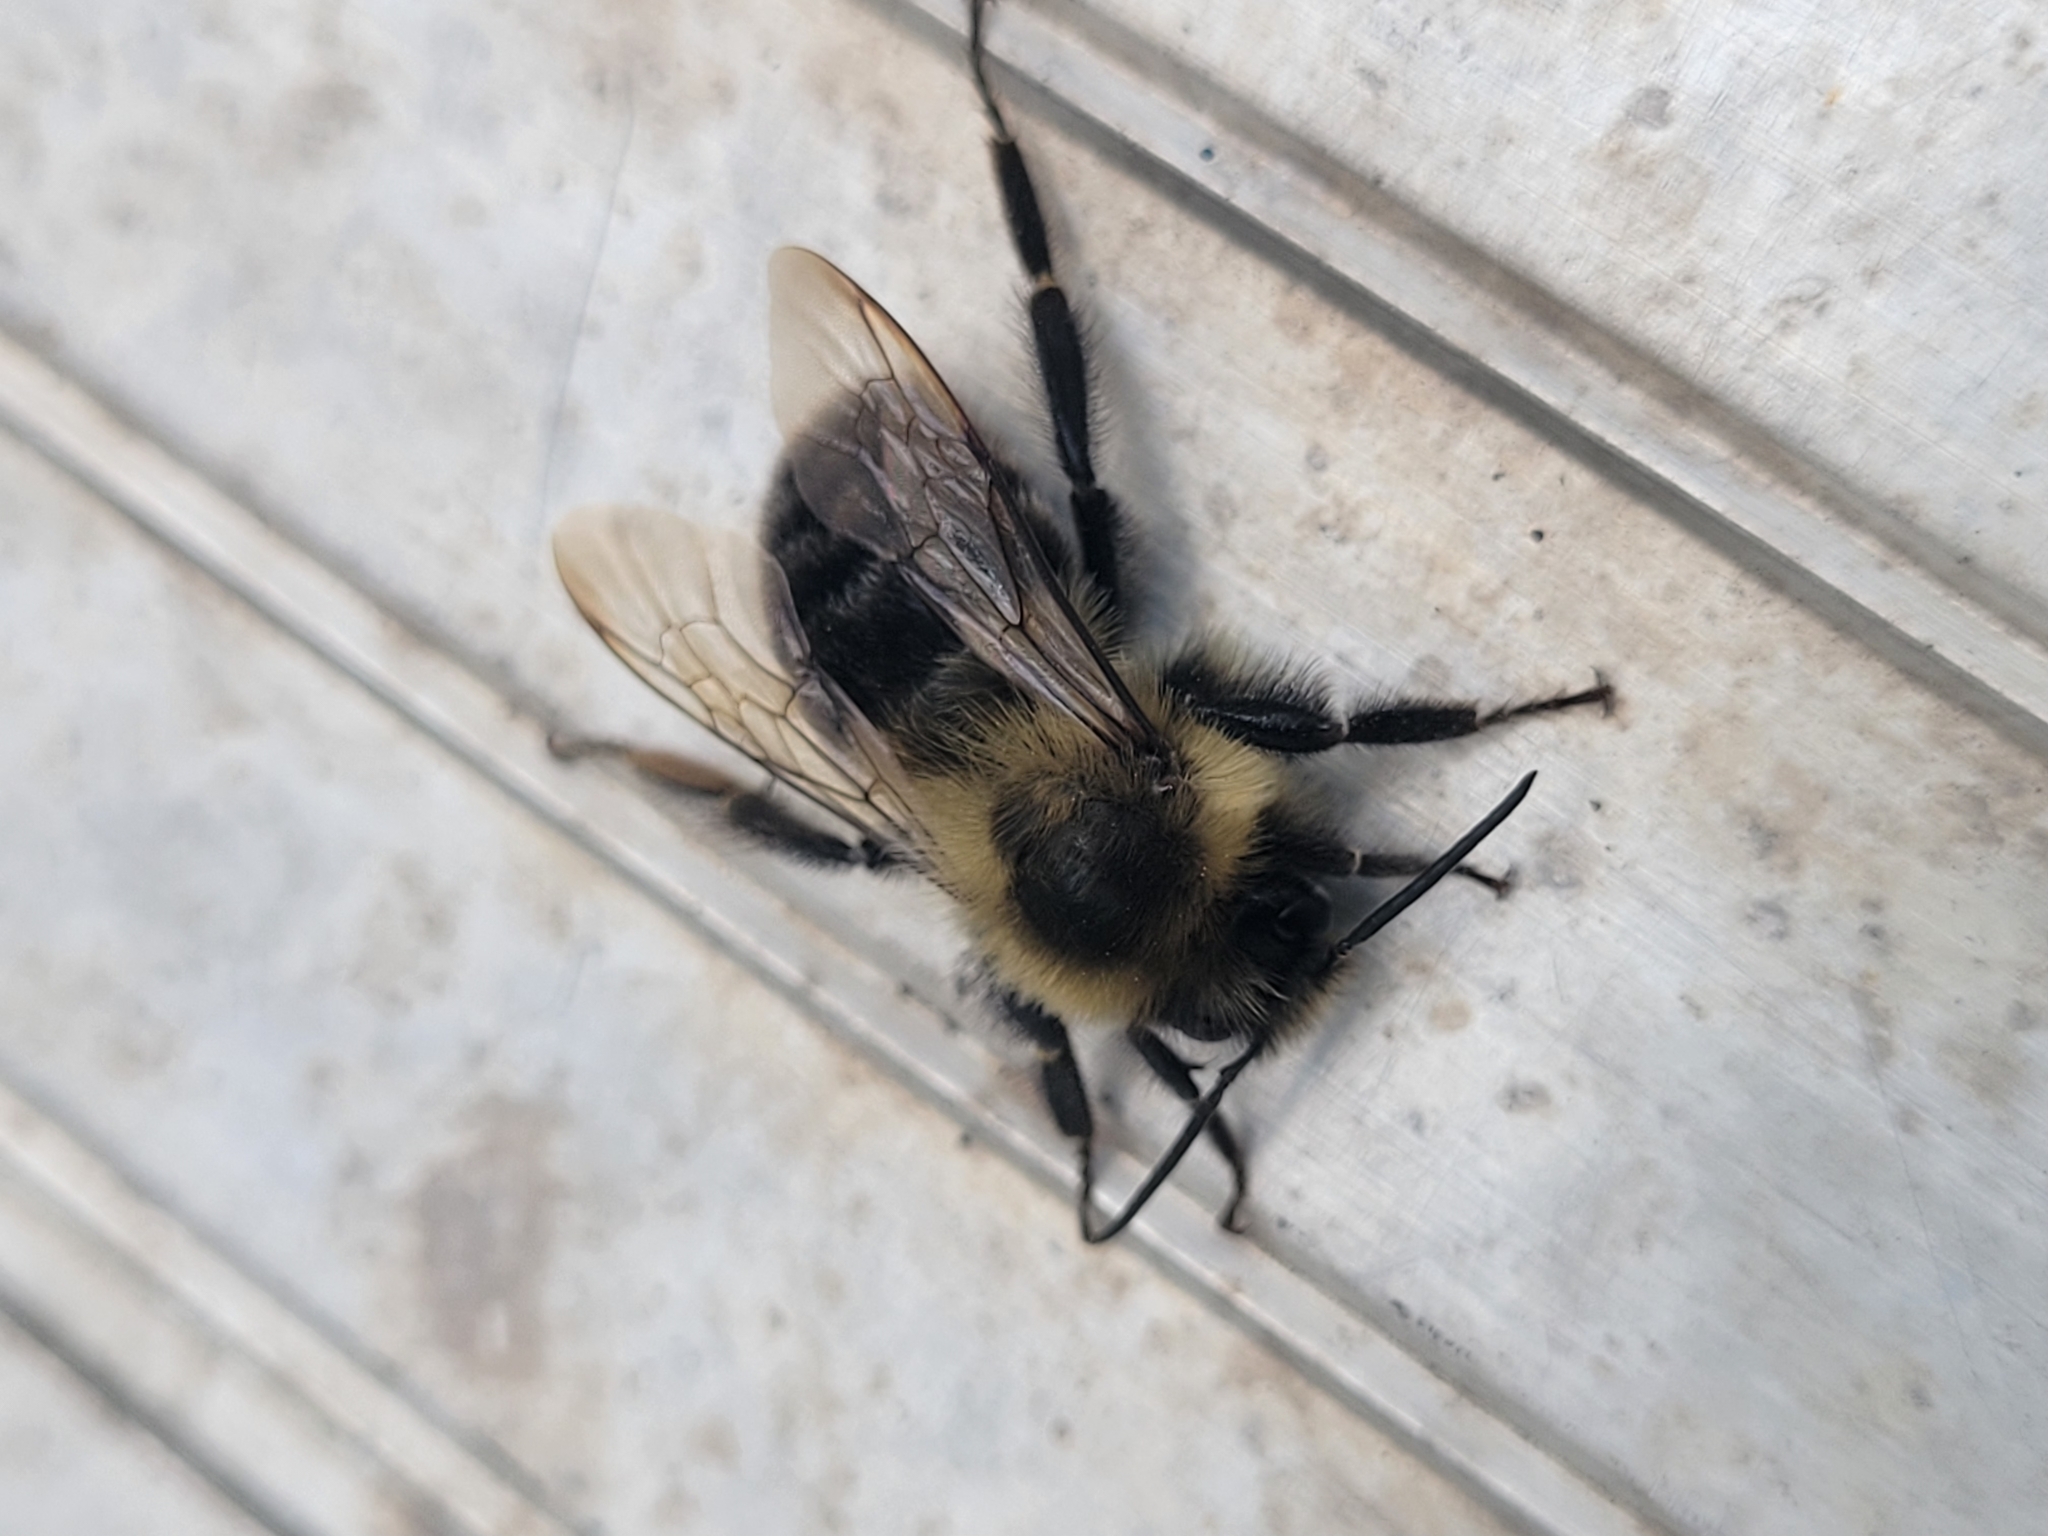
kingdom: Animalia
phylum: Arthropoda
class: Insecta
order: Hymenoptera
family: Apidae
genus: Bombus
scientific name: Bombus impatiens
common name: Common eastern bumble bee
